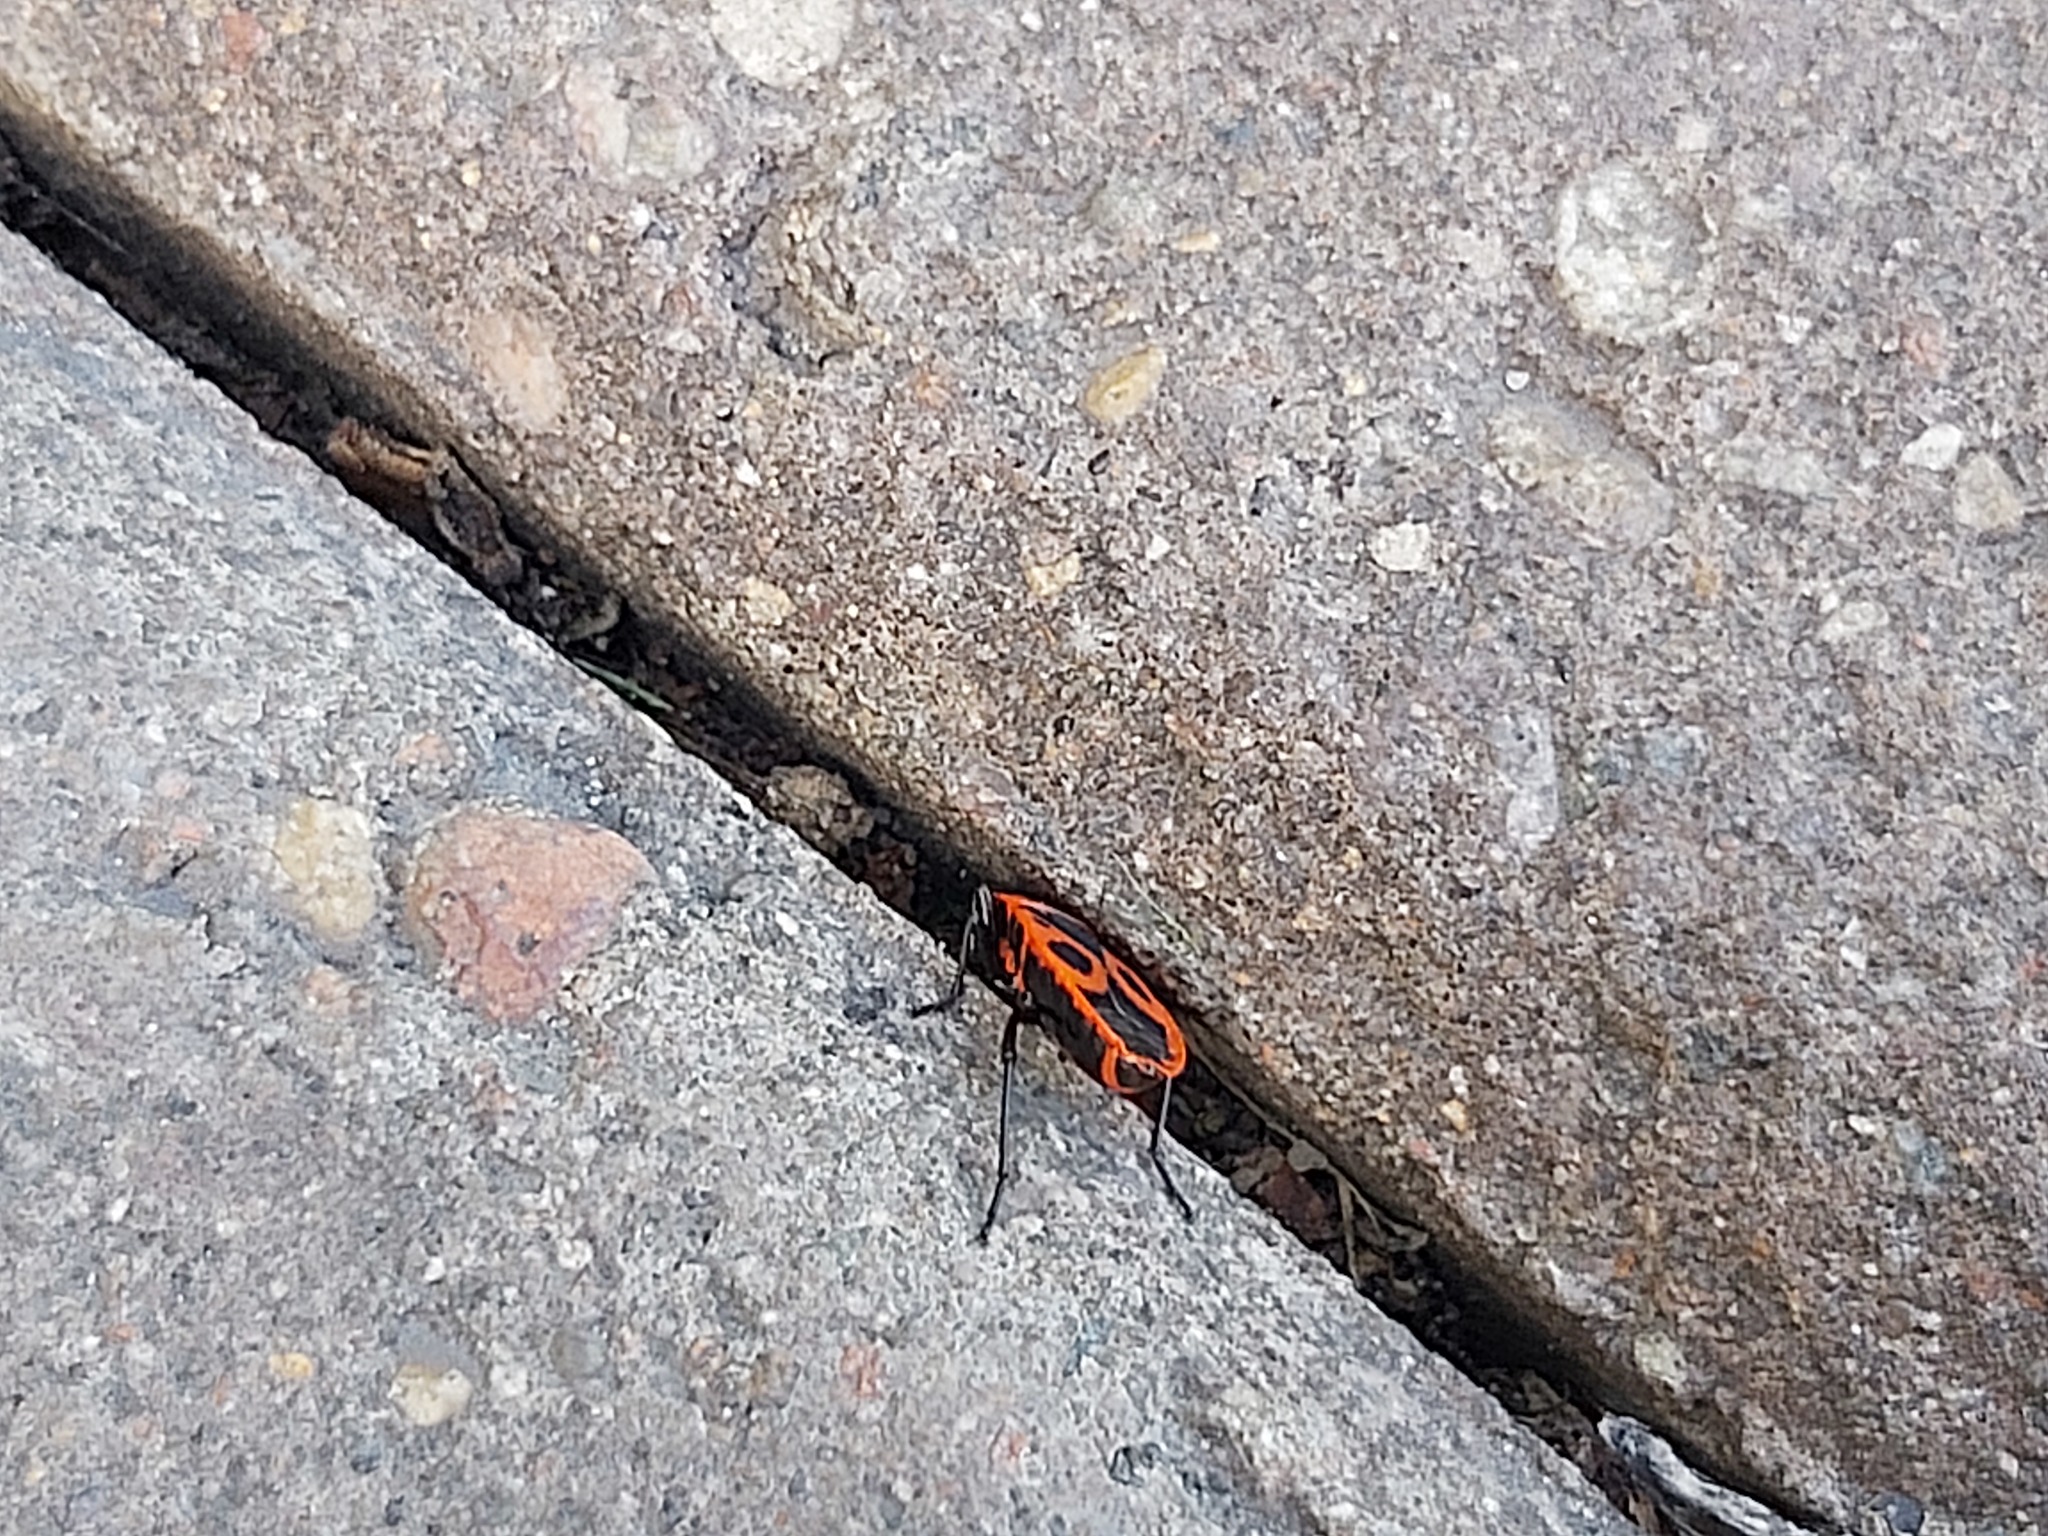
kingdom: Animalia
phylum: Arthropoda
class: Insecta
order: Hemiptera
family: Pyrrhocoridae
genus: Pyrrhocoris
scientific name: Pyrrhocoris apterus
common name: Firebug
